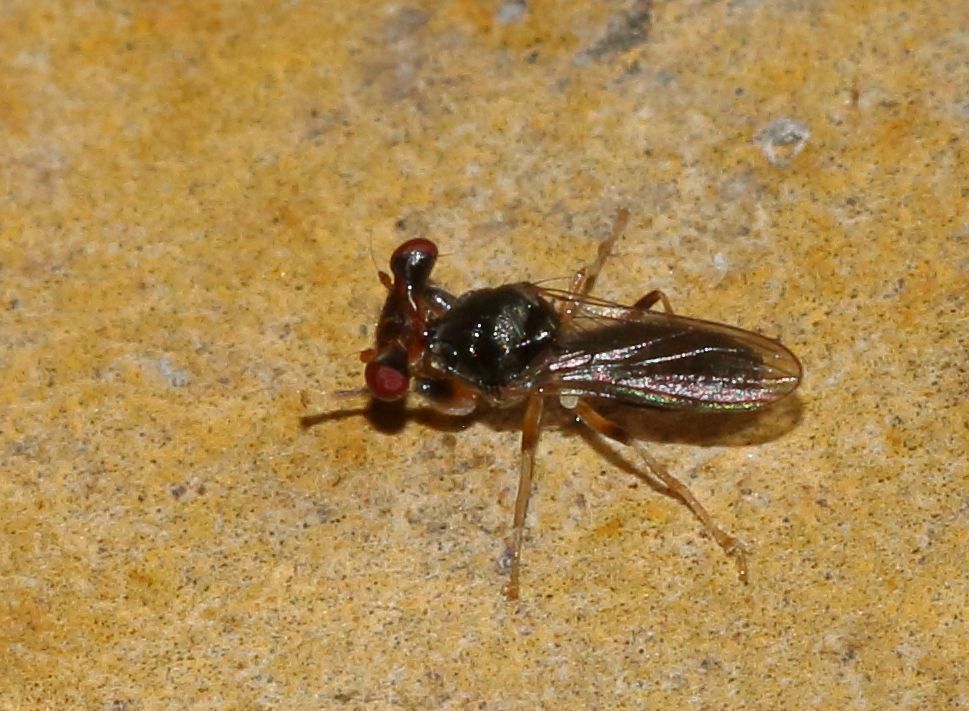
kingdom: Animalia
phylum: Arthropoda
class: Insecta
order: Diptera
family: Diopsidae
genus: Sphyracephala
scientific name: Sphyracephala beccarii
